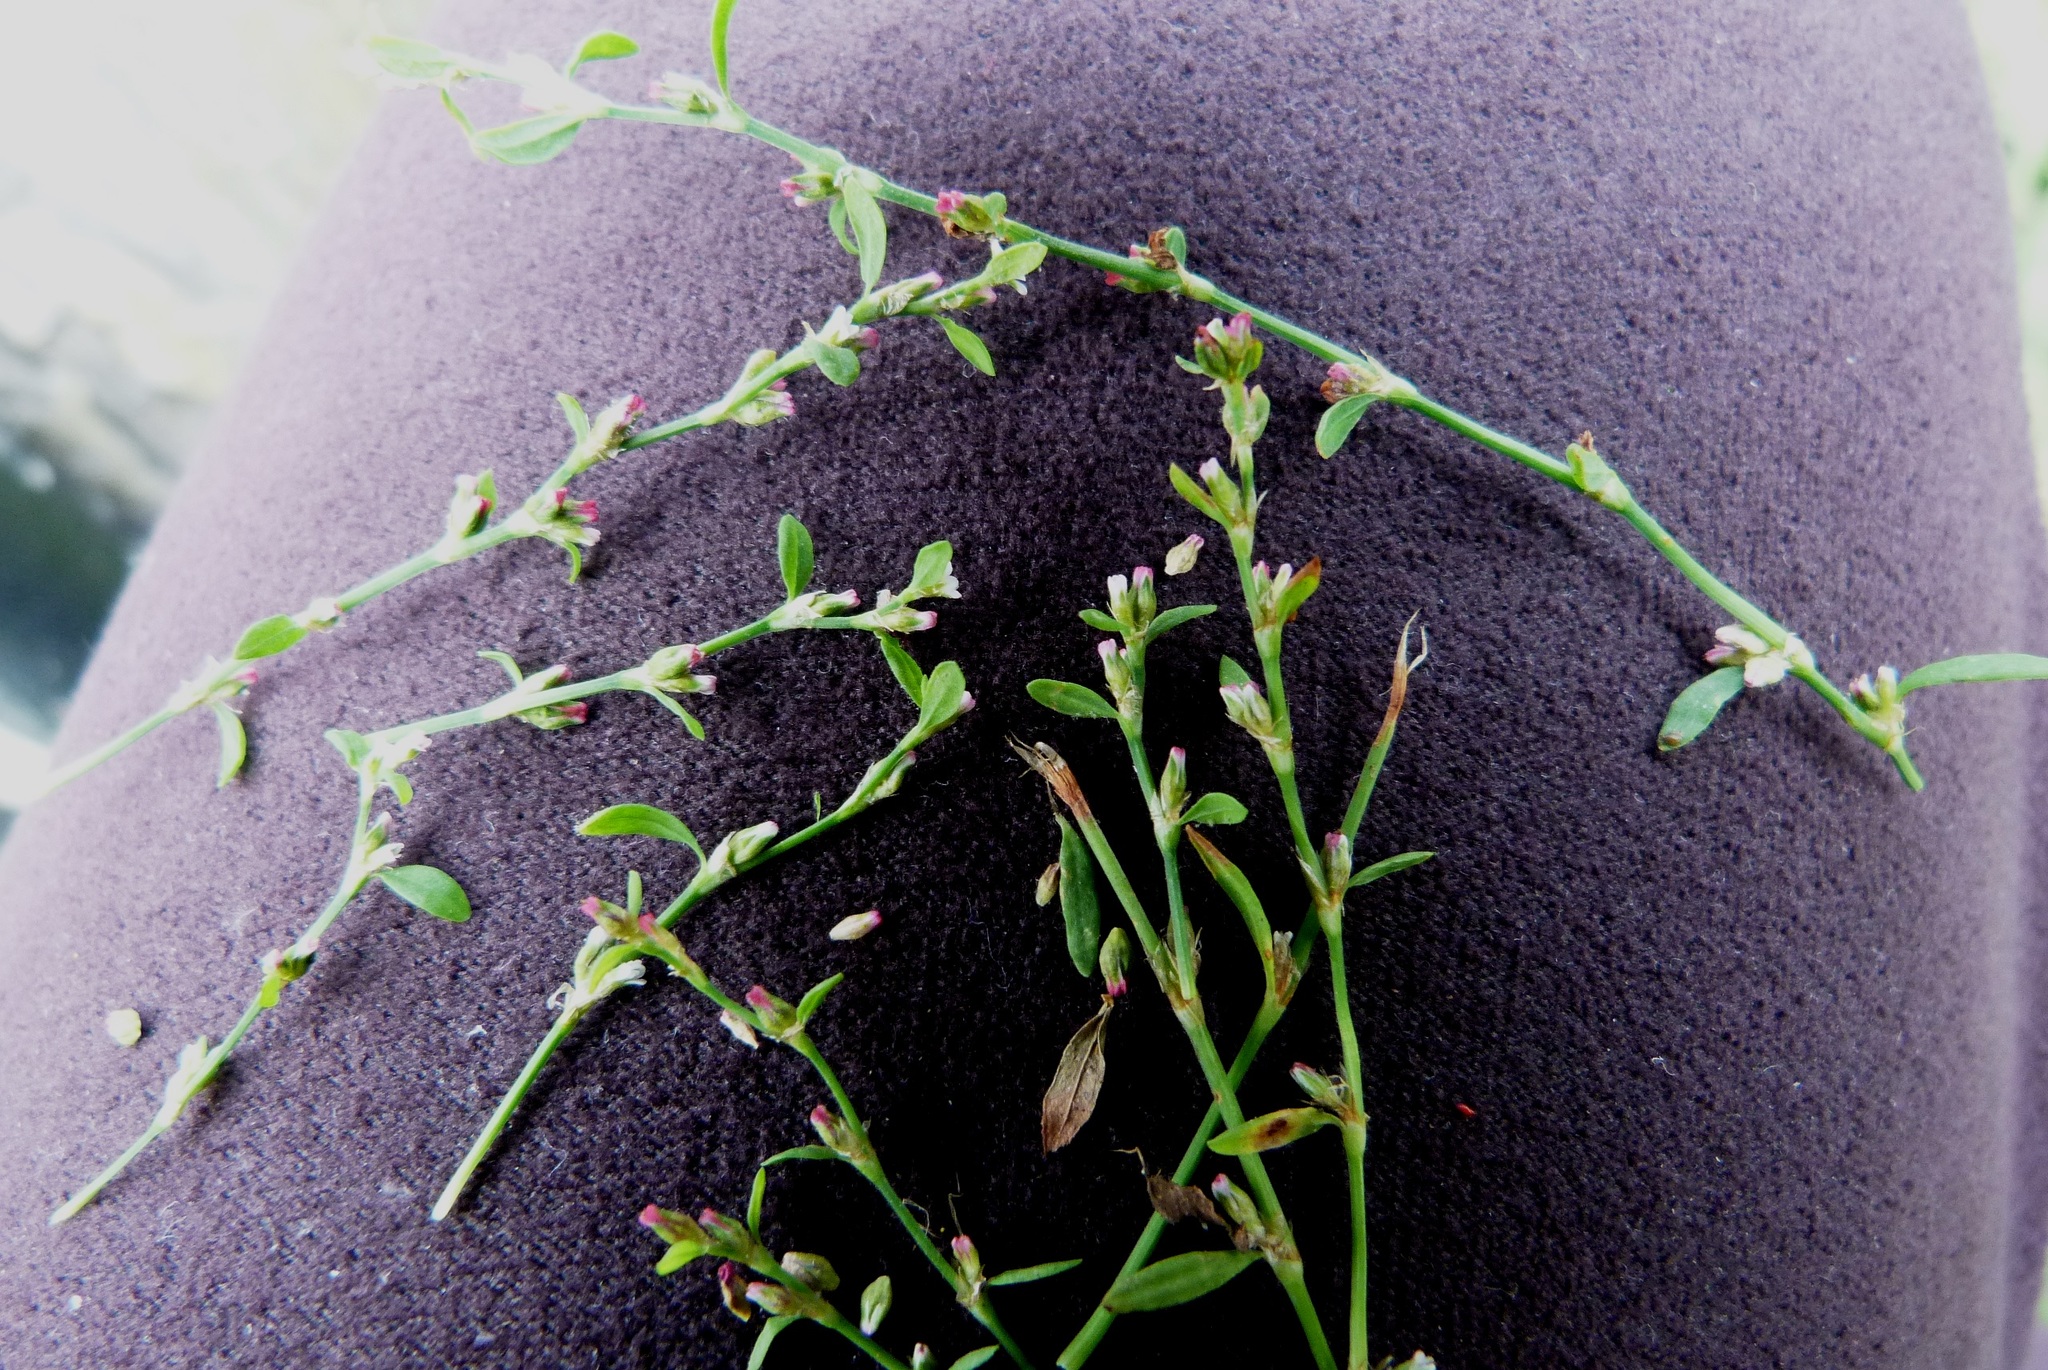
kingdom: Plantae
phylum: Tracheophyta
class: Magnoliopsida
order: Caryophyllales
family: Polygonaceae
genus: Polygonum
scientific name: Polygonum aviculare
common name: Prostrate knotweed
